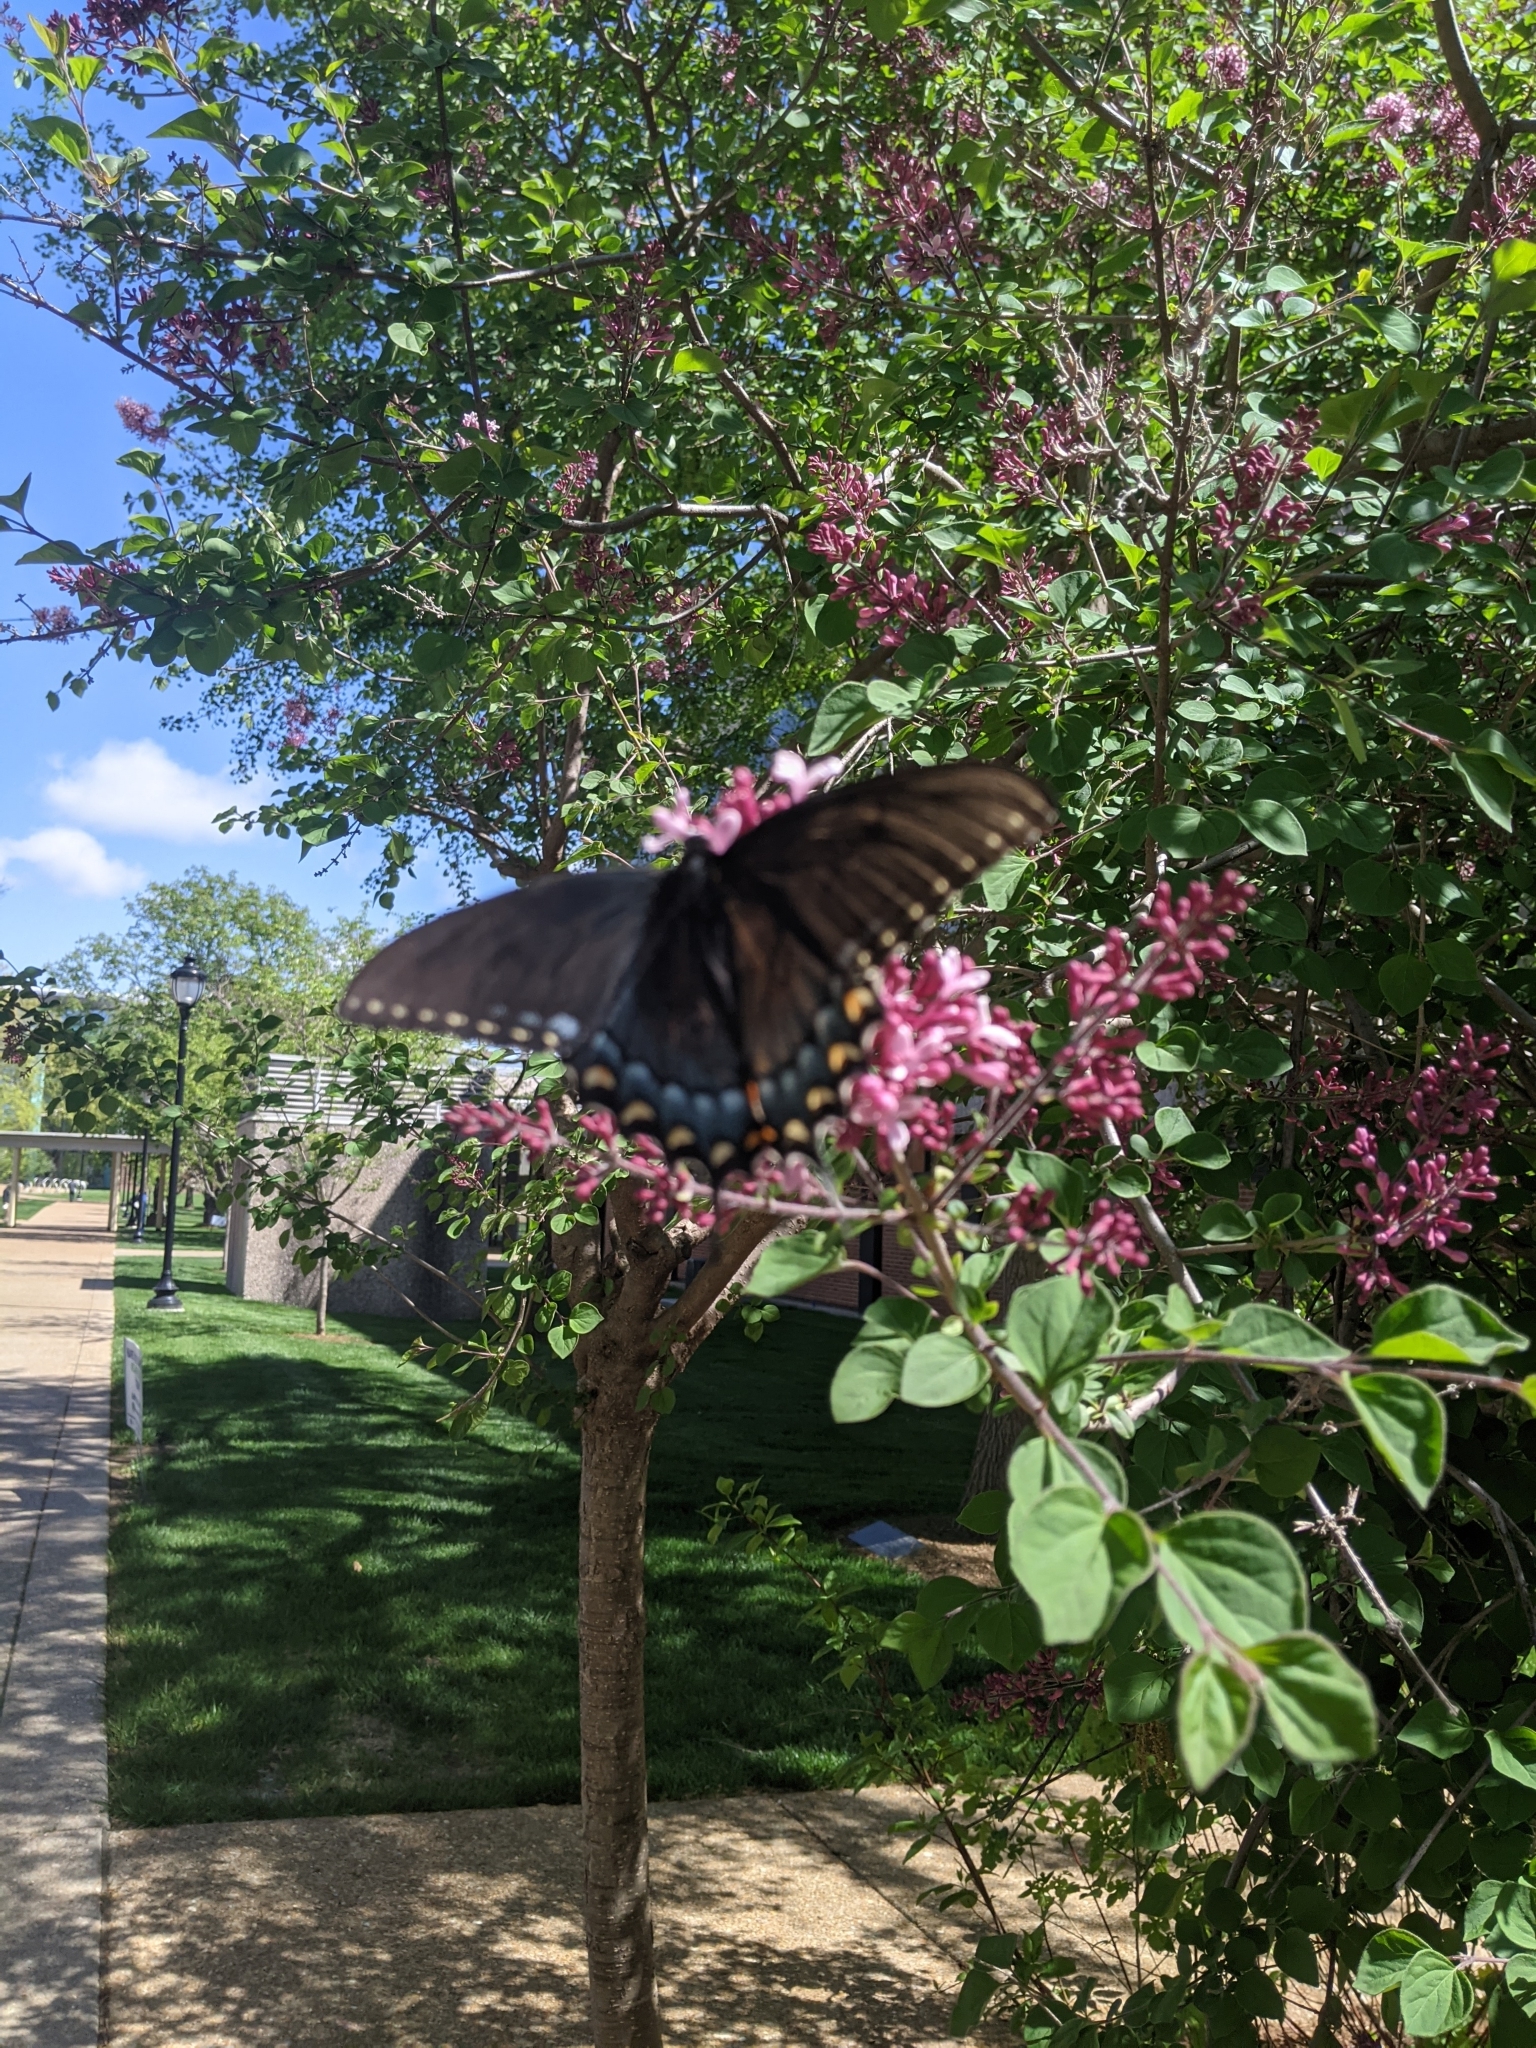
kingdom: Animalia
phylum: Arthropoda
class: Insecta
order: Lepidoptera
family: Papilionidae
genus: Papilio
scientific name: Papilio glaucus
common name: Tiger swallowtail
